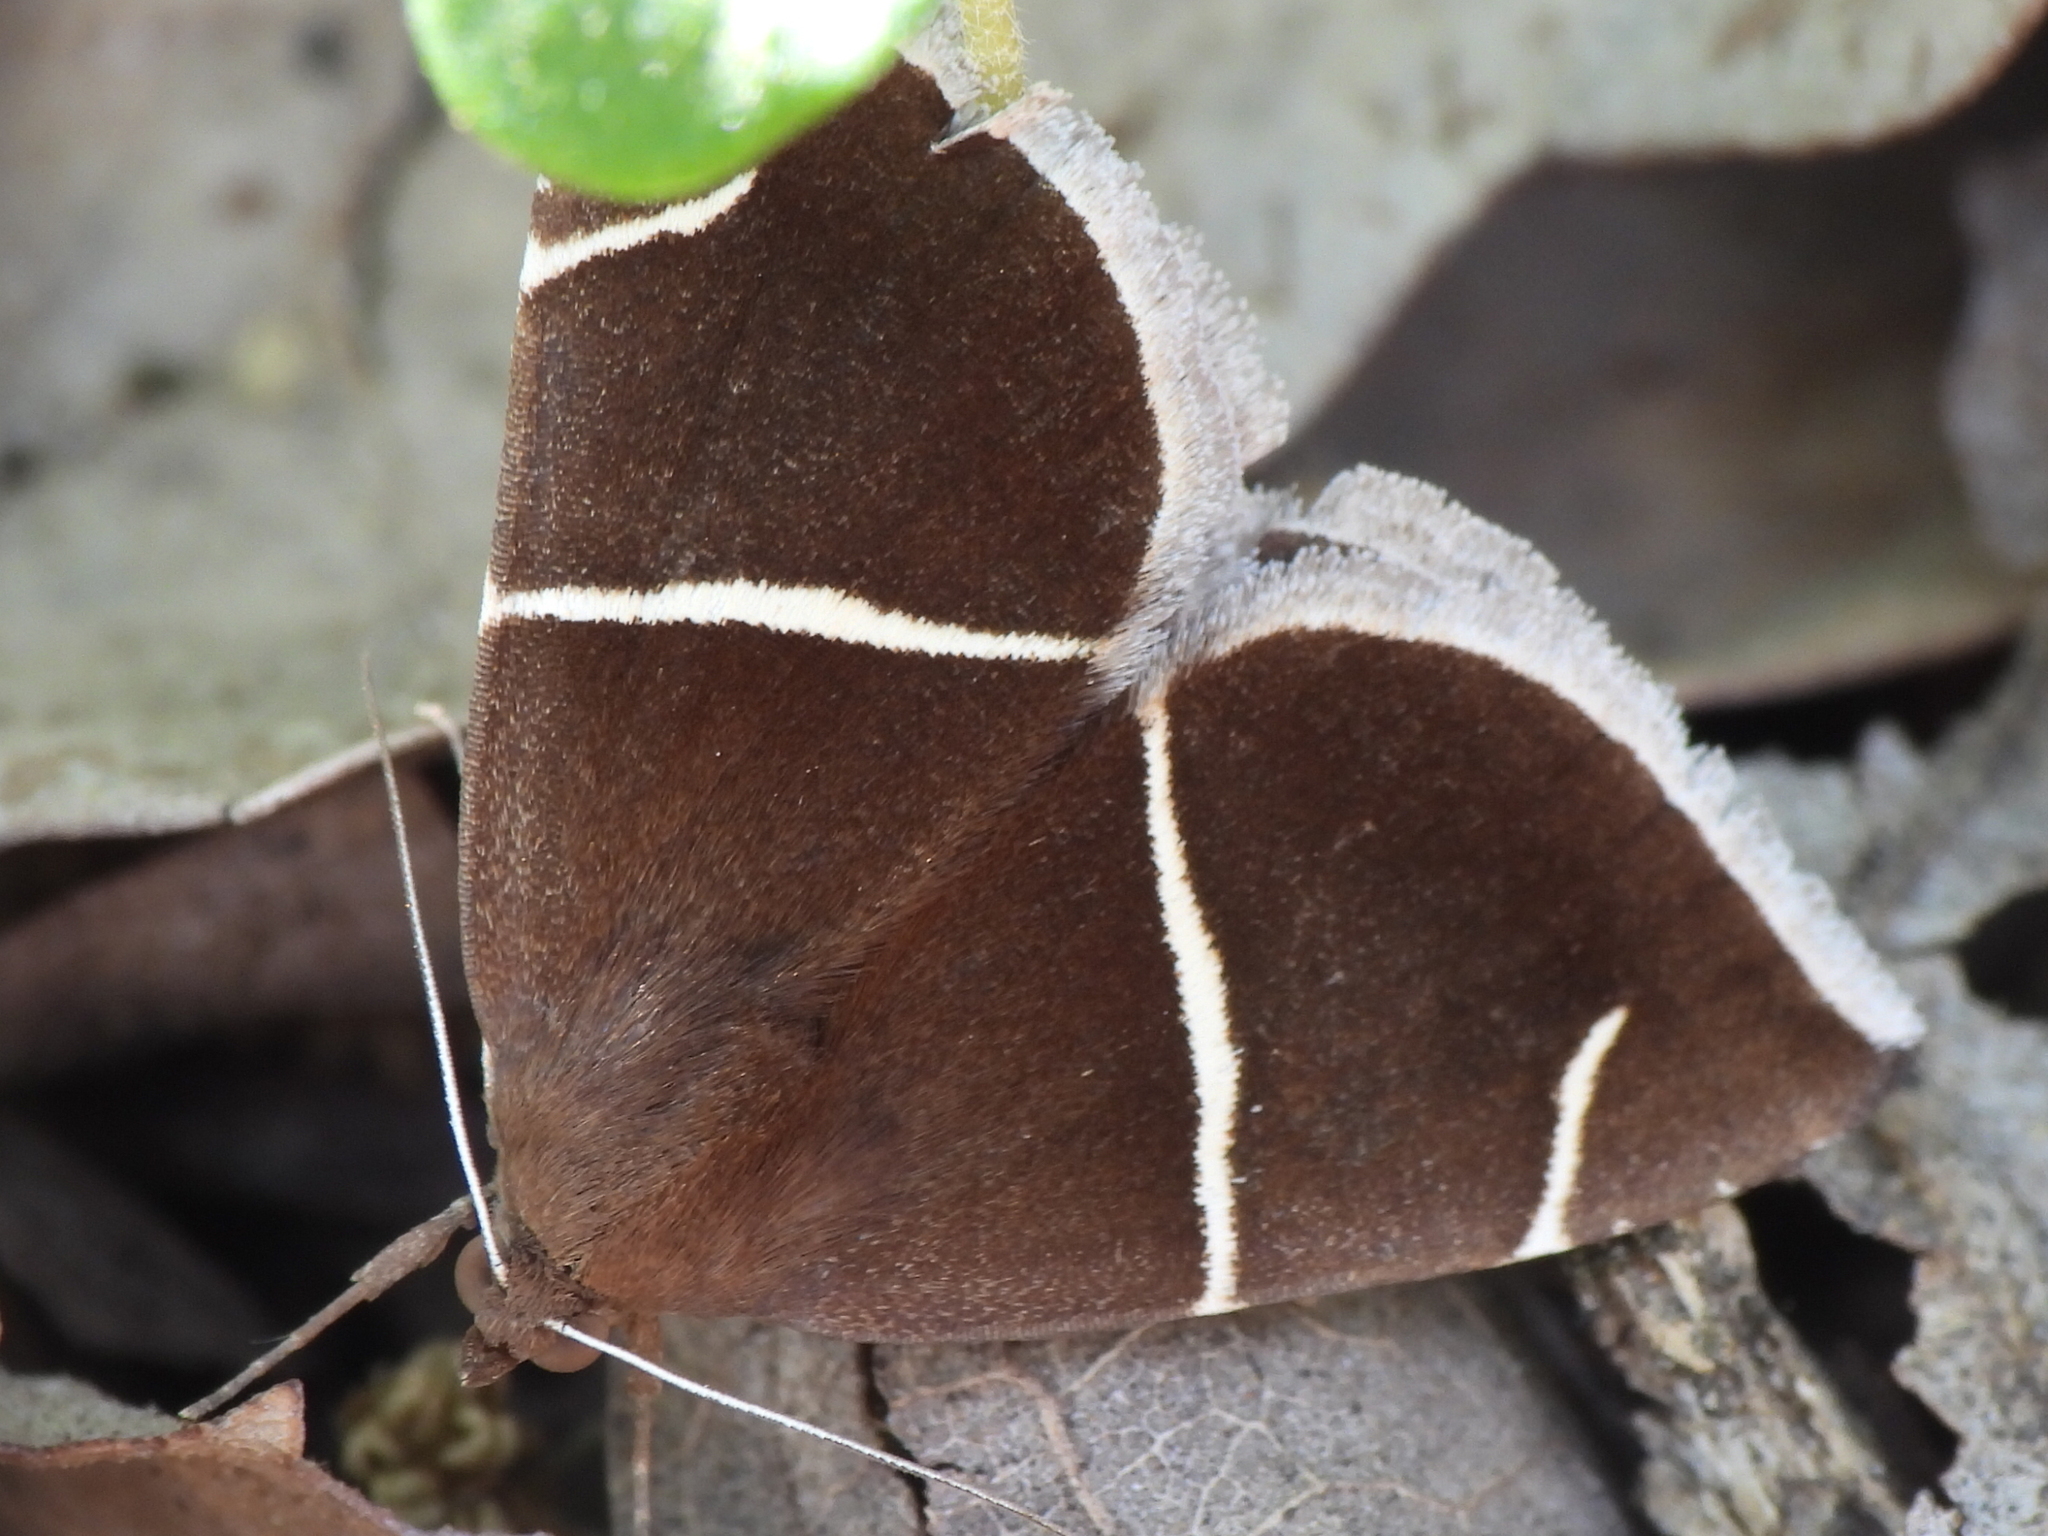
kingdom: Animalia
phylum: Arthropoda
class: Insecta
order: Lepidoptera
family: Erebidae
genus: Argyrostrotis
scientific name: Argyrostrotis anilis
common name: Short-lined chocolate
